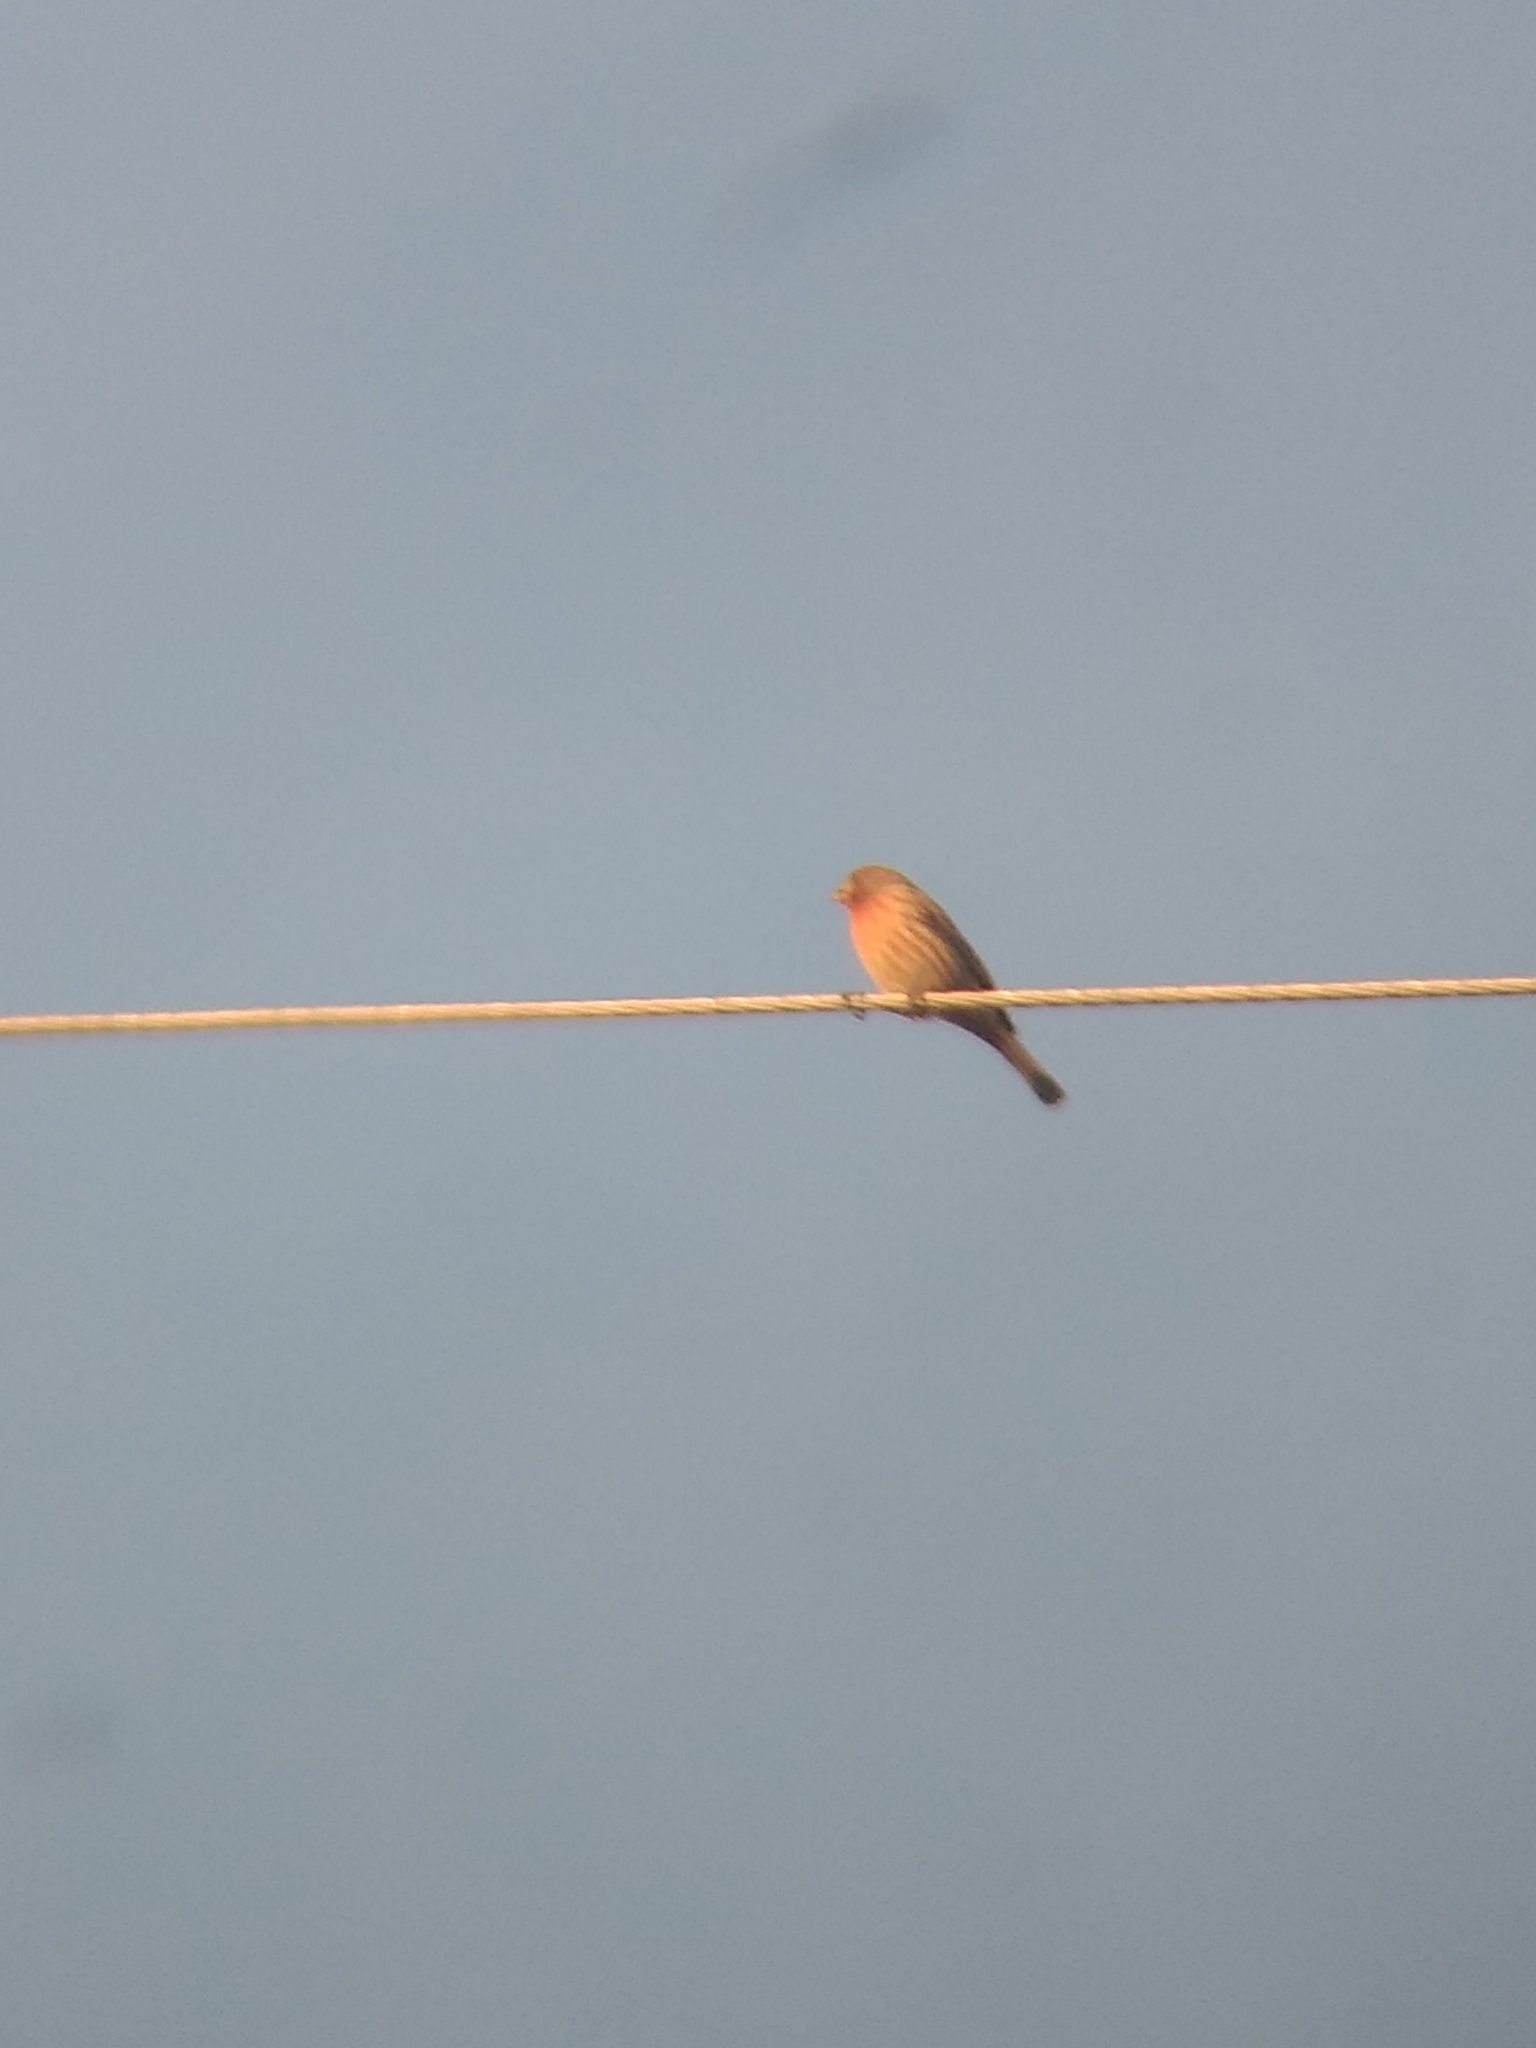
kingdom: Animalia
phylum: Chordata
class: Aves
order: Passeriformes
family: Fringillidae
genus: Haemorhous
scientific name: Haemorhous mexicanus
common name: House finch
